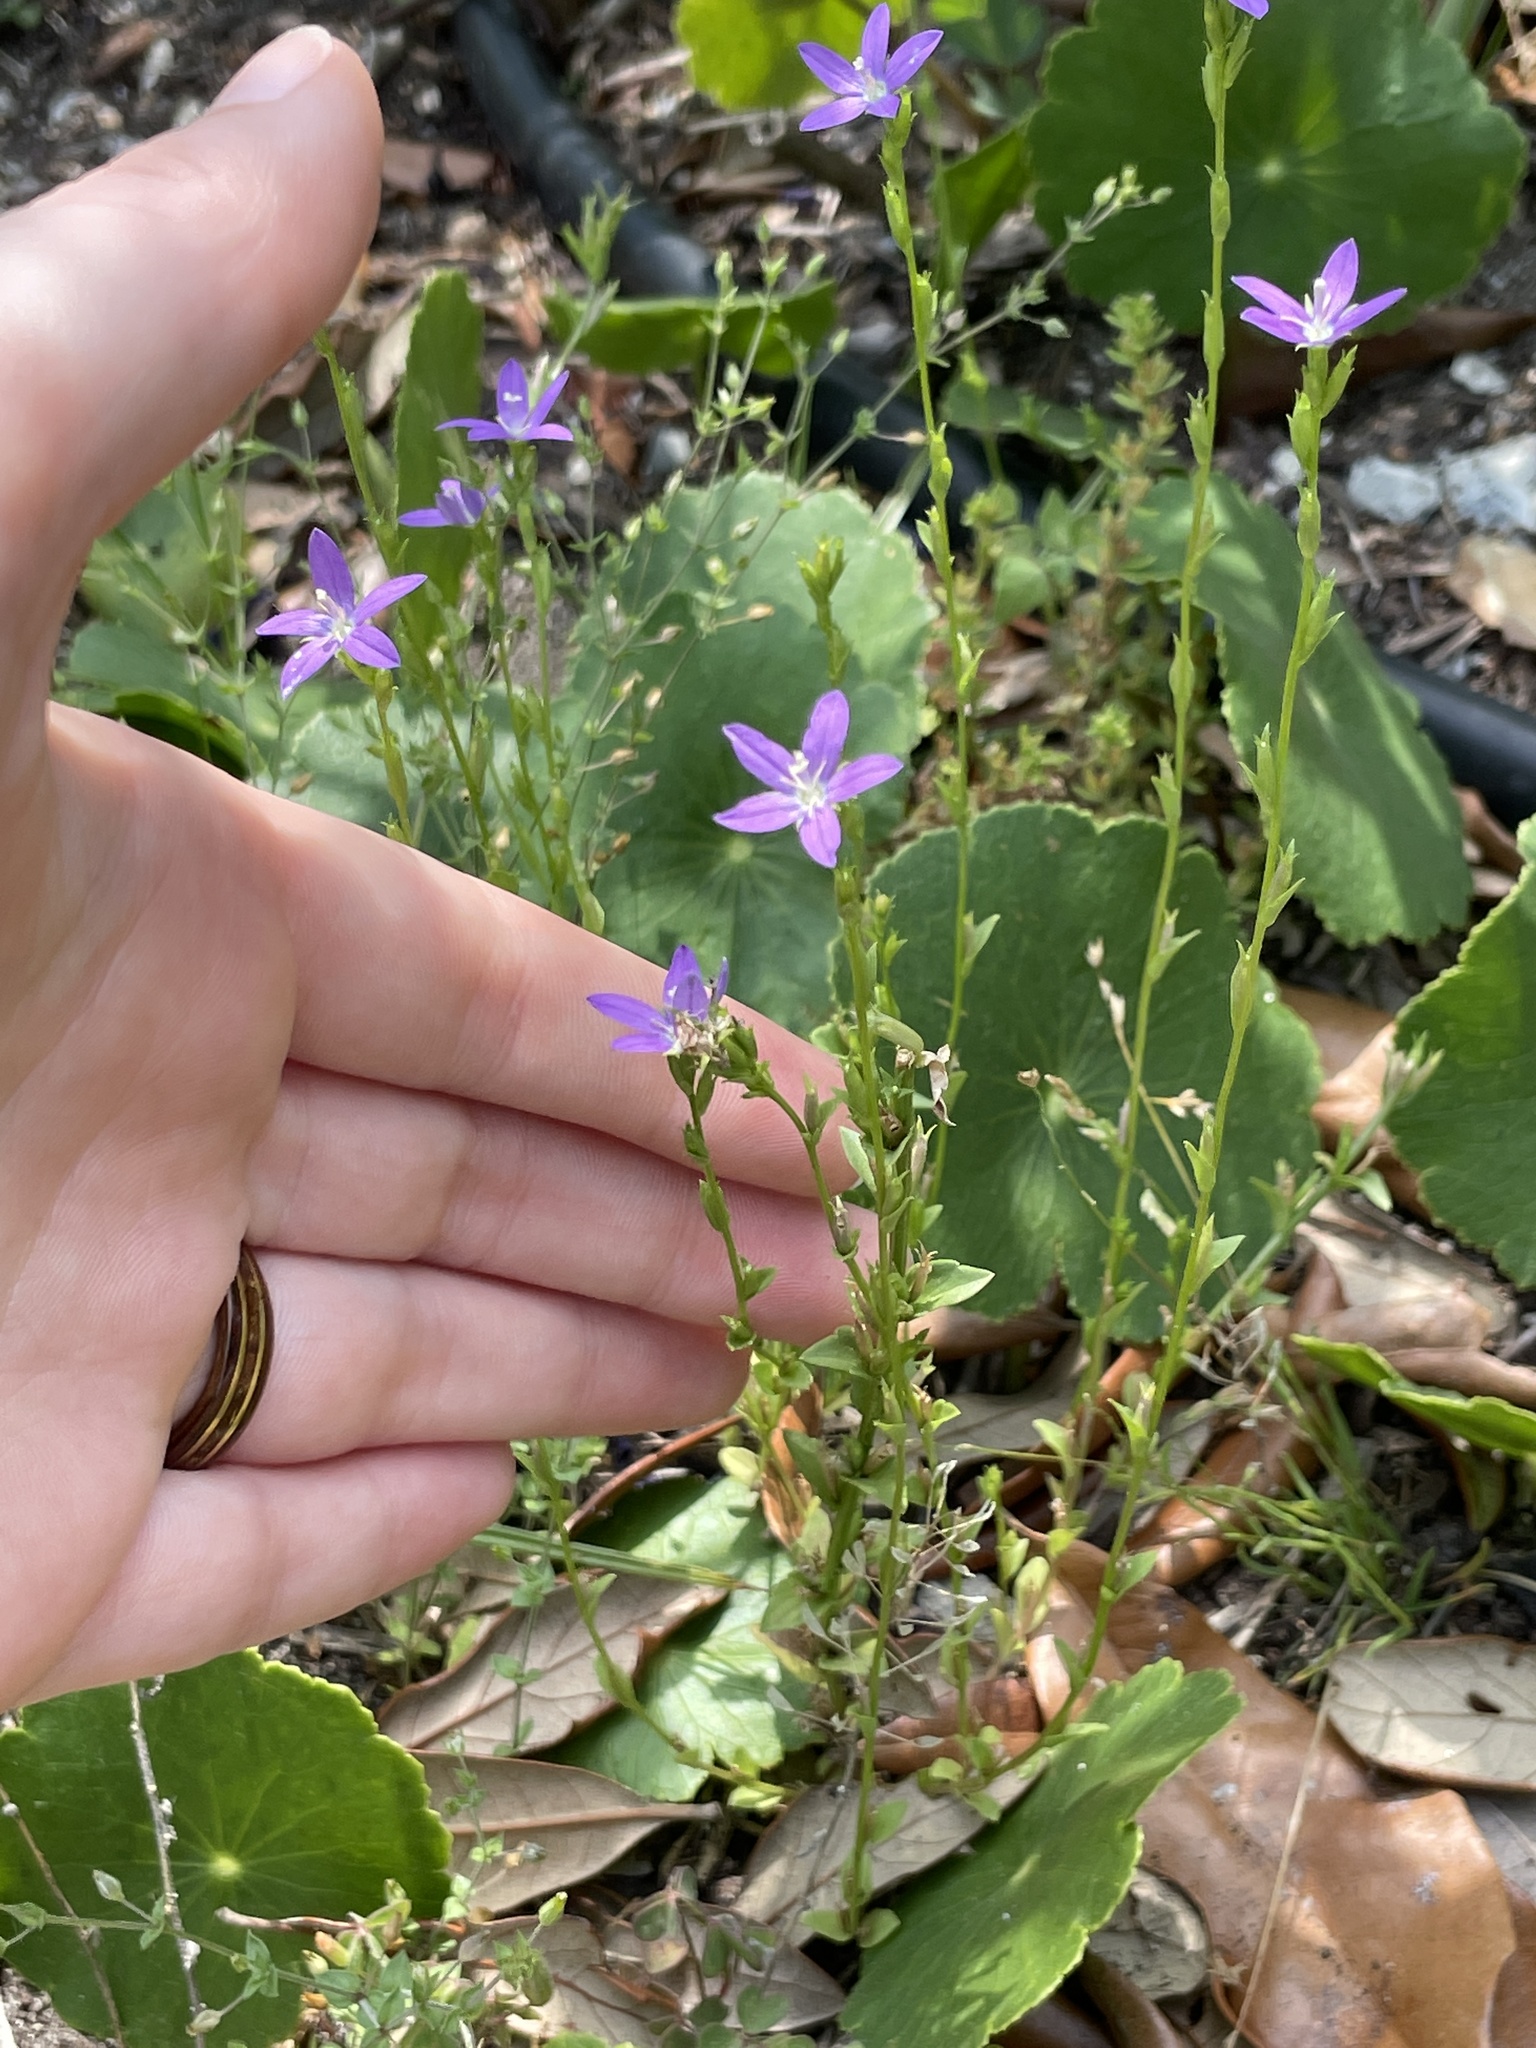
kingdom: Plantae
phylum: Tracheophyta
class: Magnoliopsida
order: Asterales
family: Campanulaceae
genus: Triodanis
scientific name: Triodanis biflora
